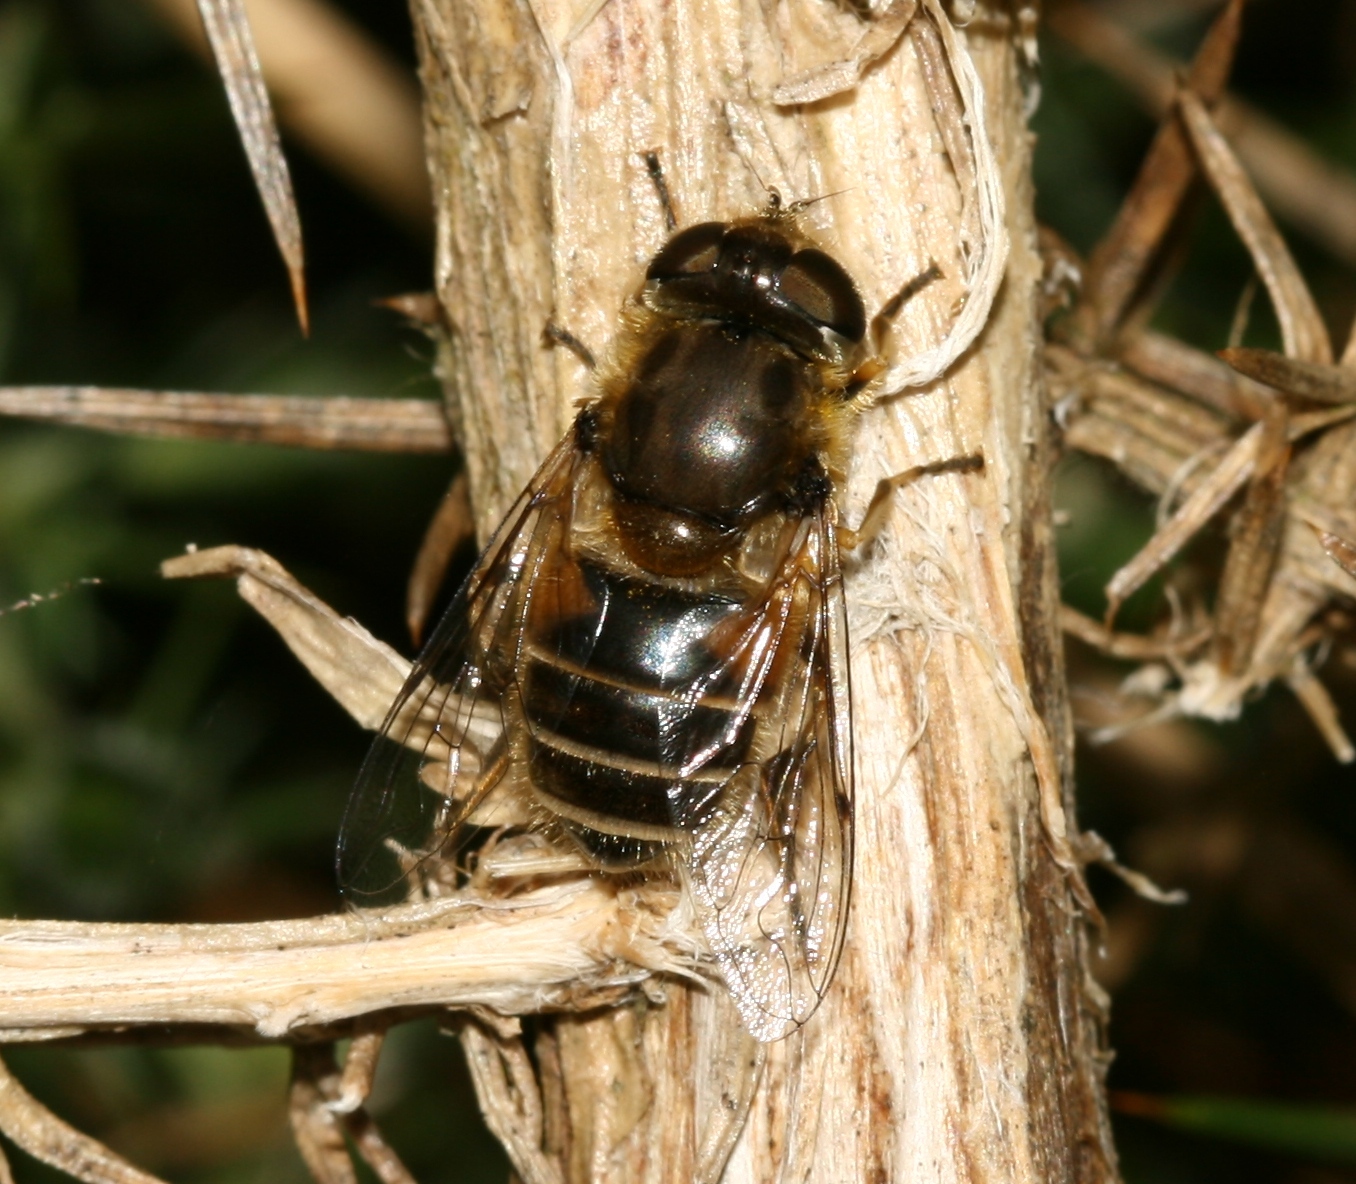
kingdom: Animalia
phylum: Arthropoda
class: Insecta
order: Diptera
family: Syrphidae
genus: Eristalis
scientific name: Eristalis arbustorum
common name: Hover fly
